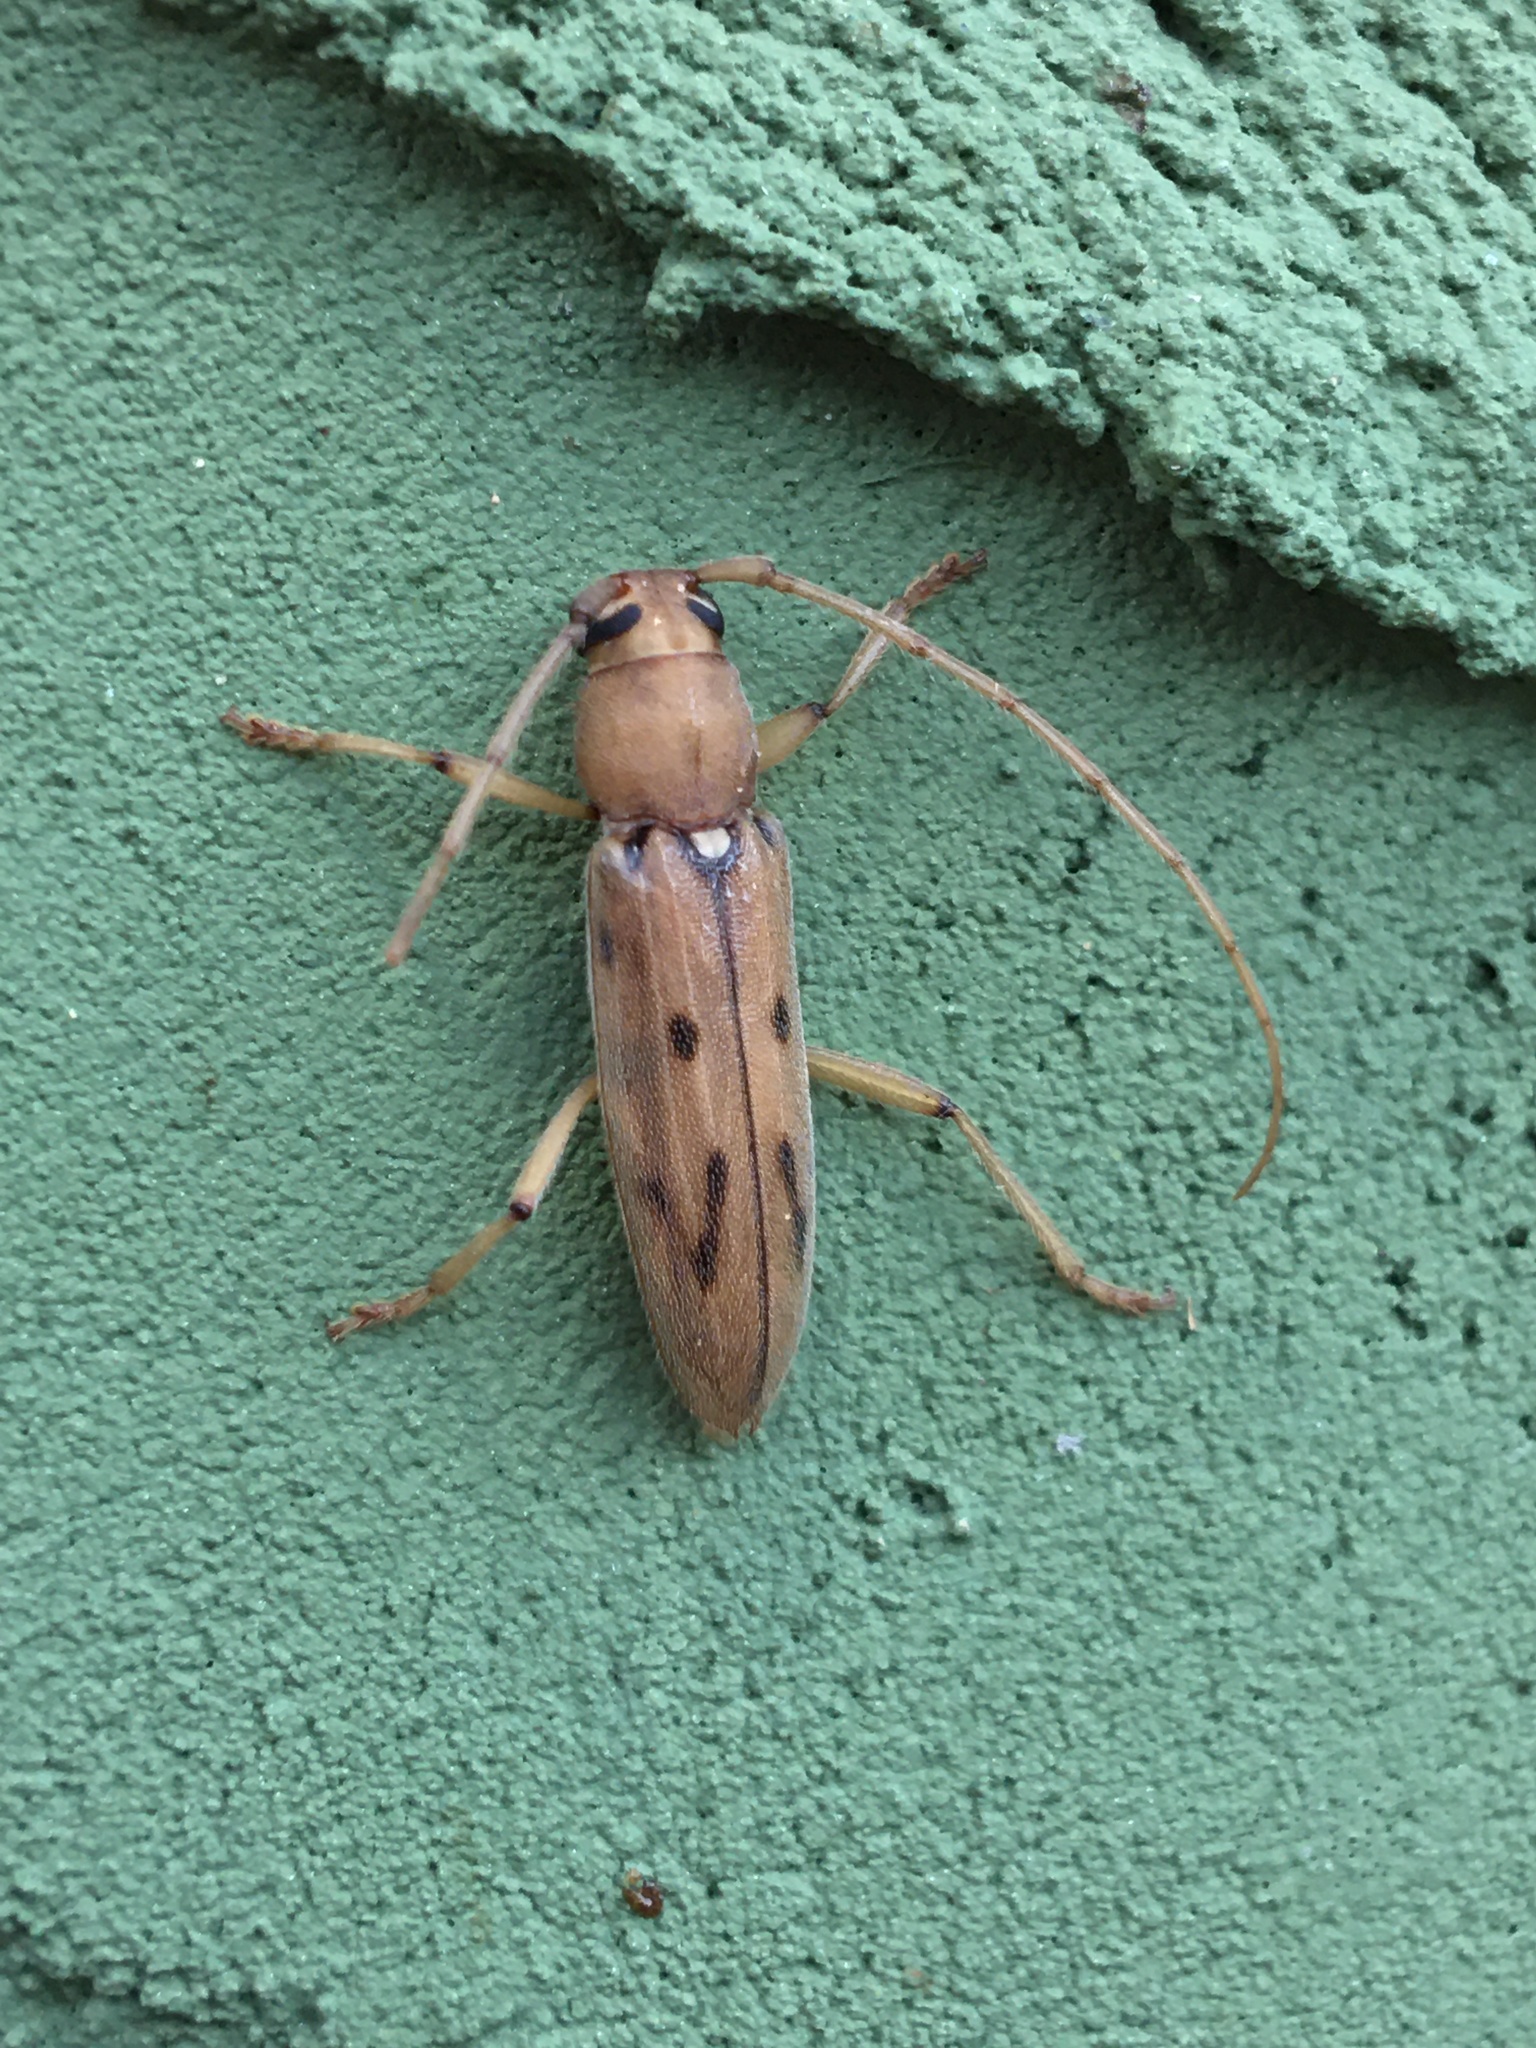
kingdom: Animalia
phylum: Arthropoda
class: Insecta
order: Coleoptera
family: Cerambycidae
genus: Achryson
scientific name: Achryson surinamum
